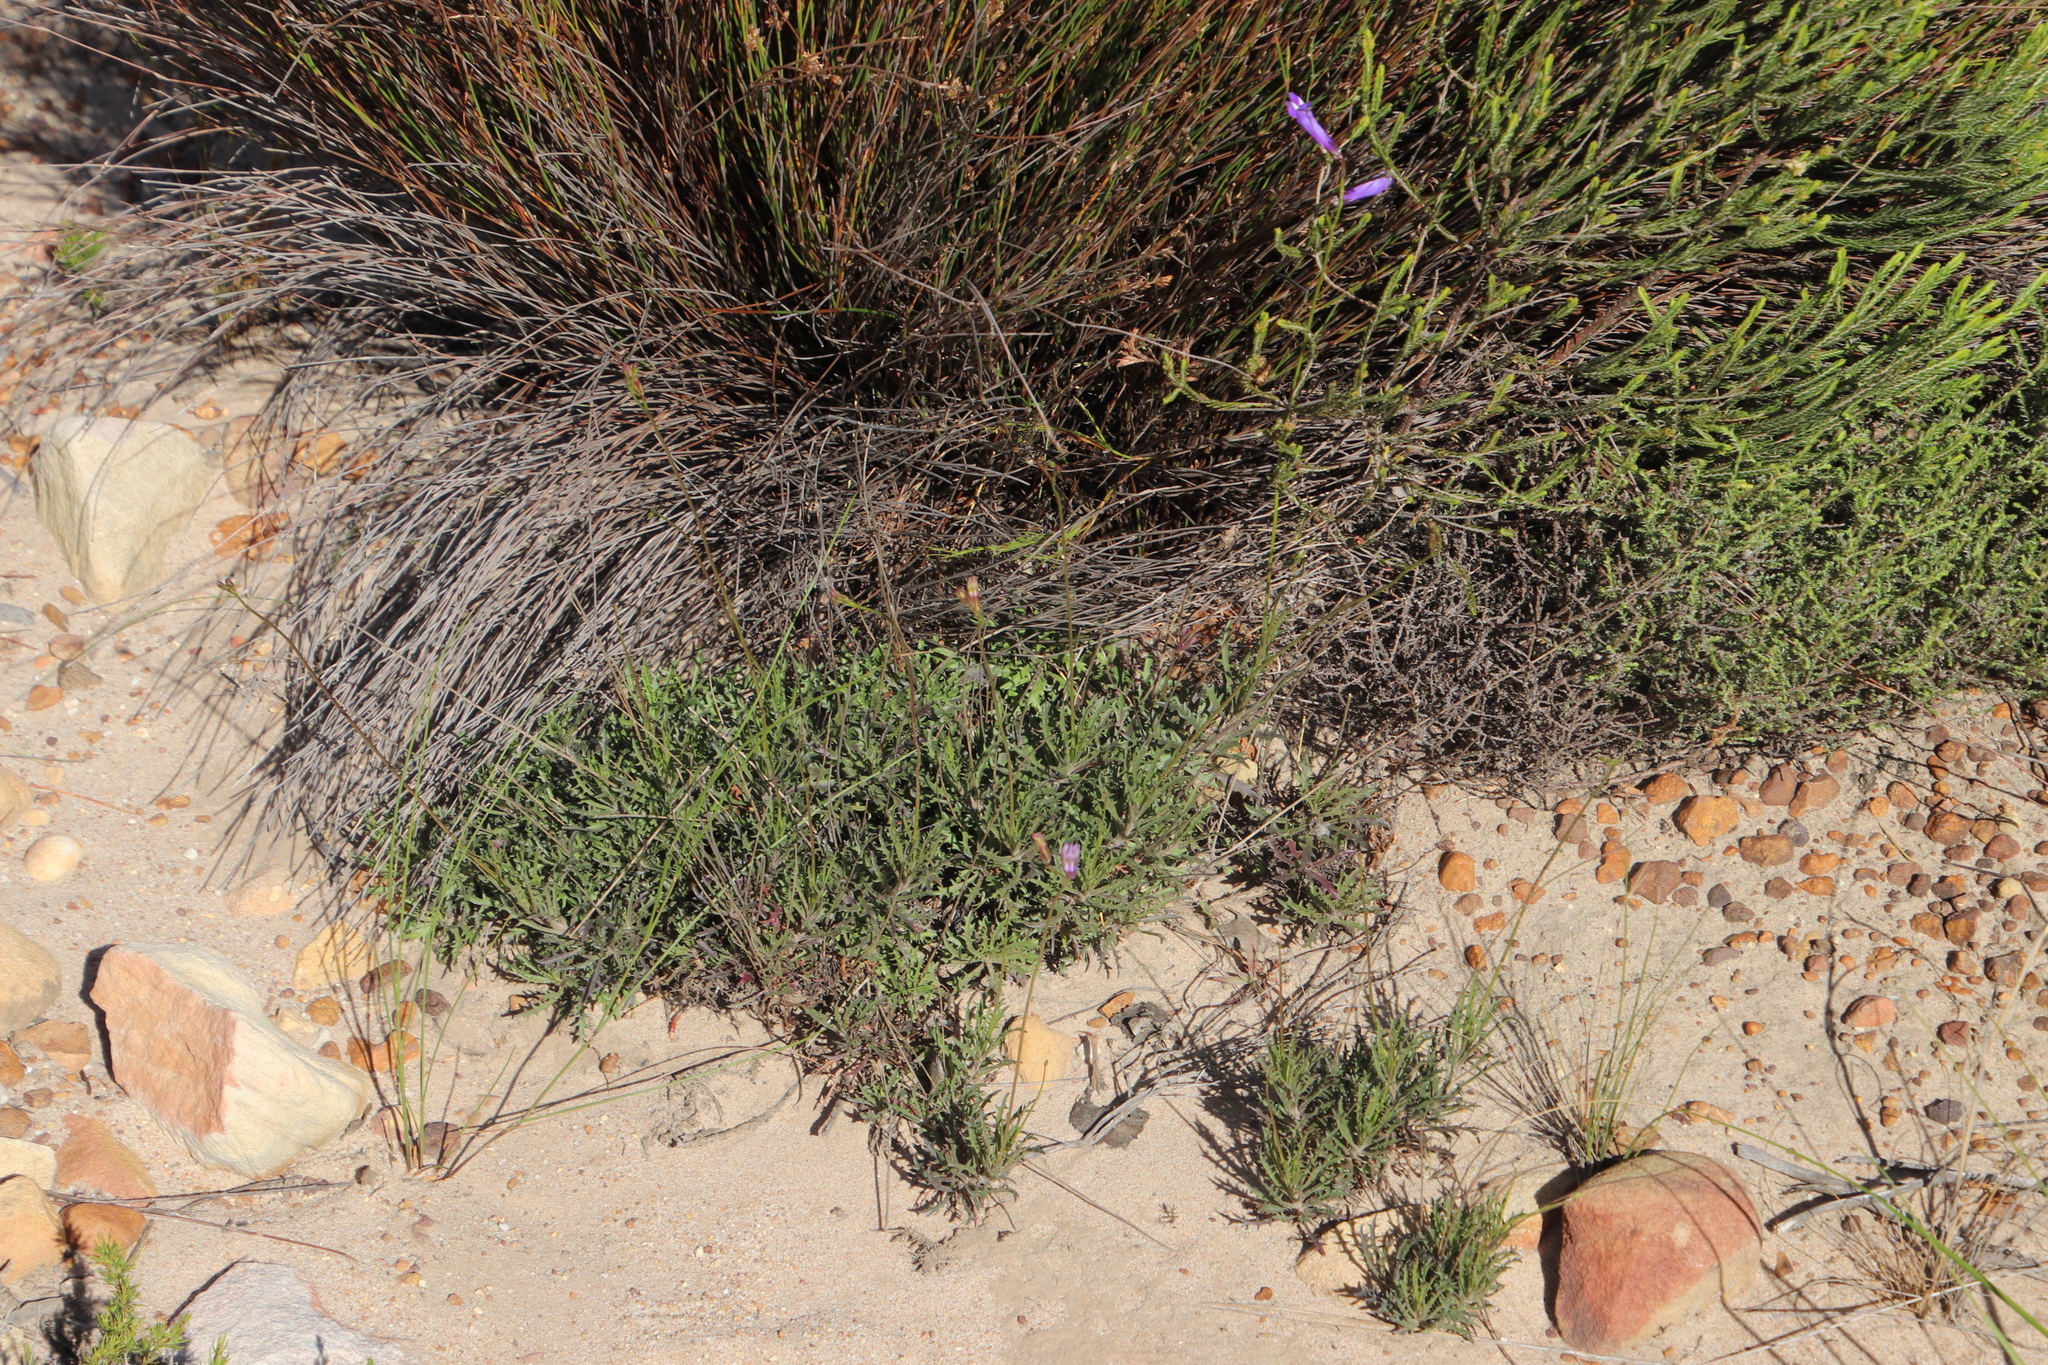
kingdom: Plantae
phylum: Tracheophyta
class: Magnoliopsida
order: Asterales
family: Campanulaceae
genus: Lobelia
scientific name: Lobelia coronopifolia
